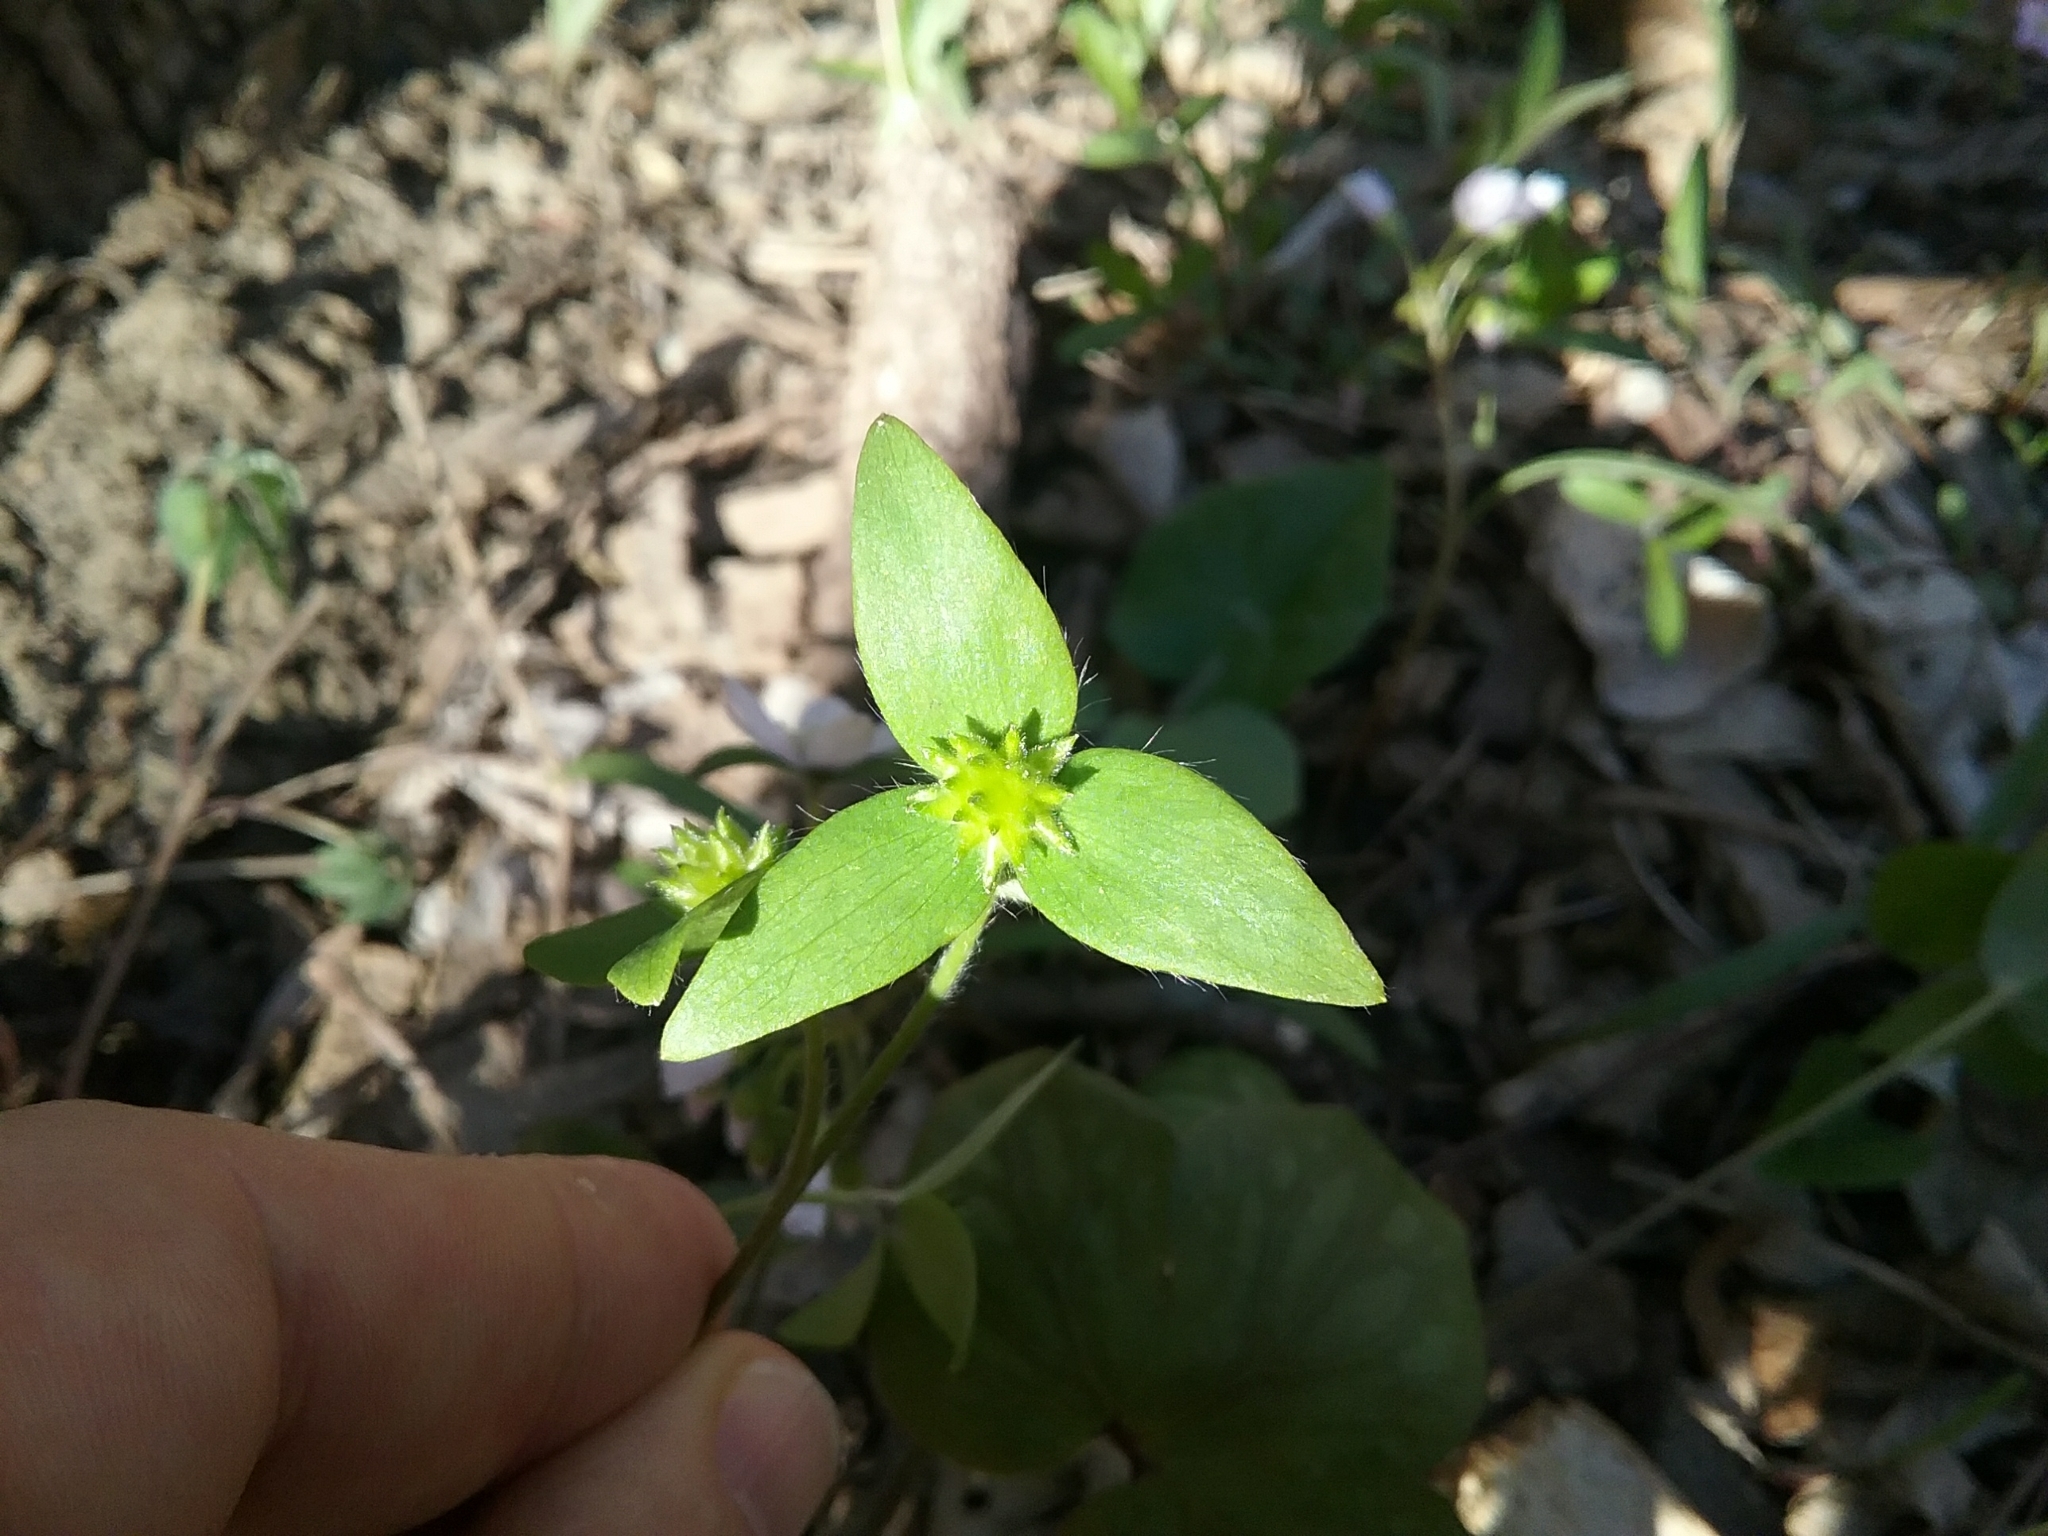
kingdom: Plantae
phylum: Tracheophyta
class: Magnoliopsida
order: Ranunculales
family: Ranunculaceae
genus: Hepatica
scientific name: Hepatica acutiloba
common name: Sharp-lobed hepatica
